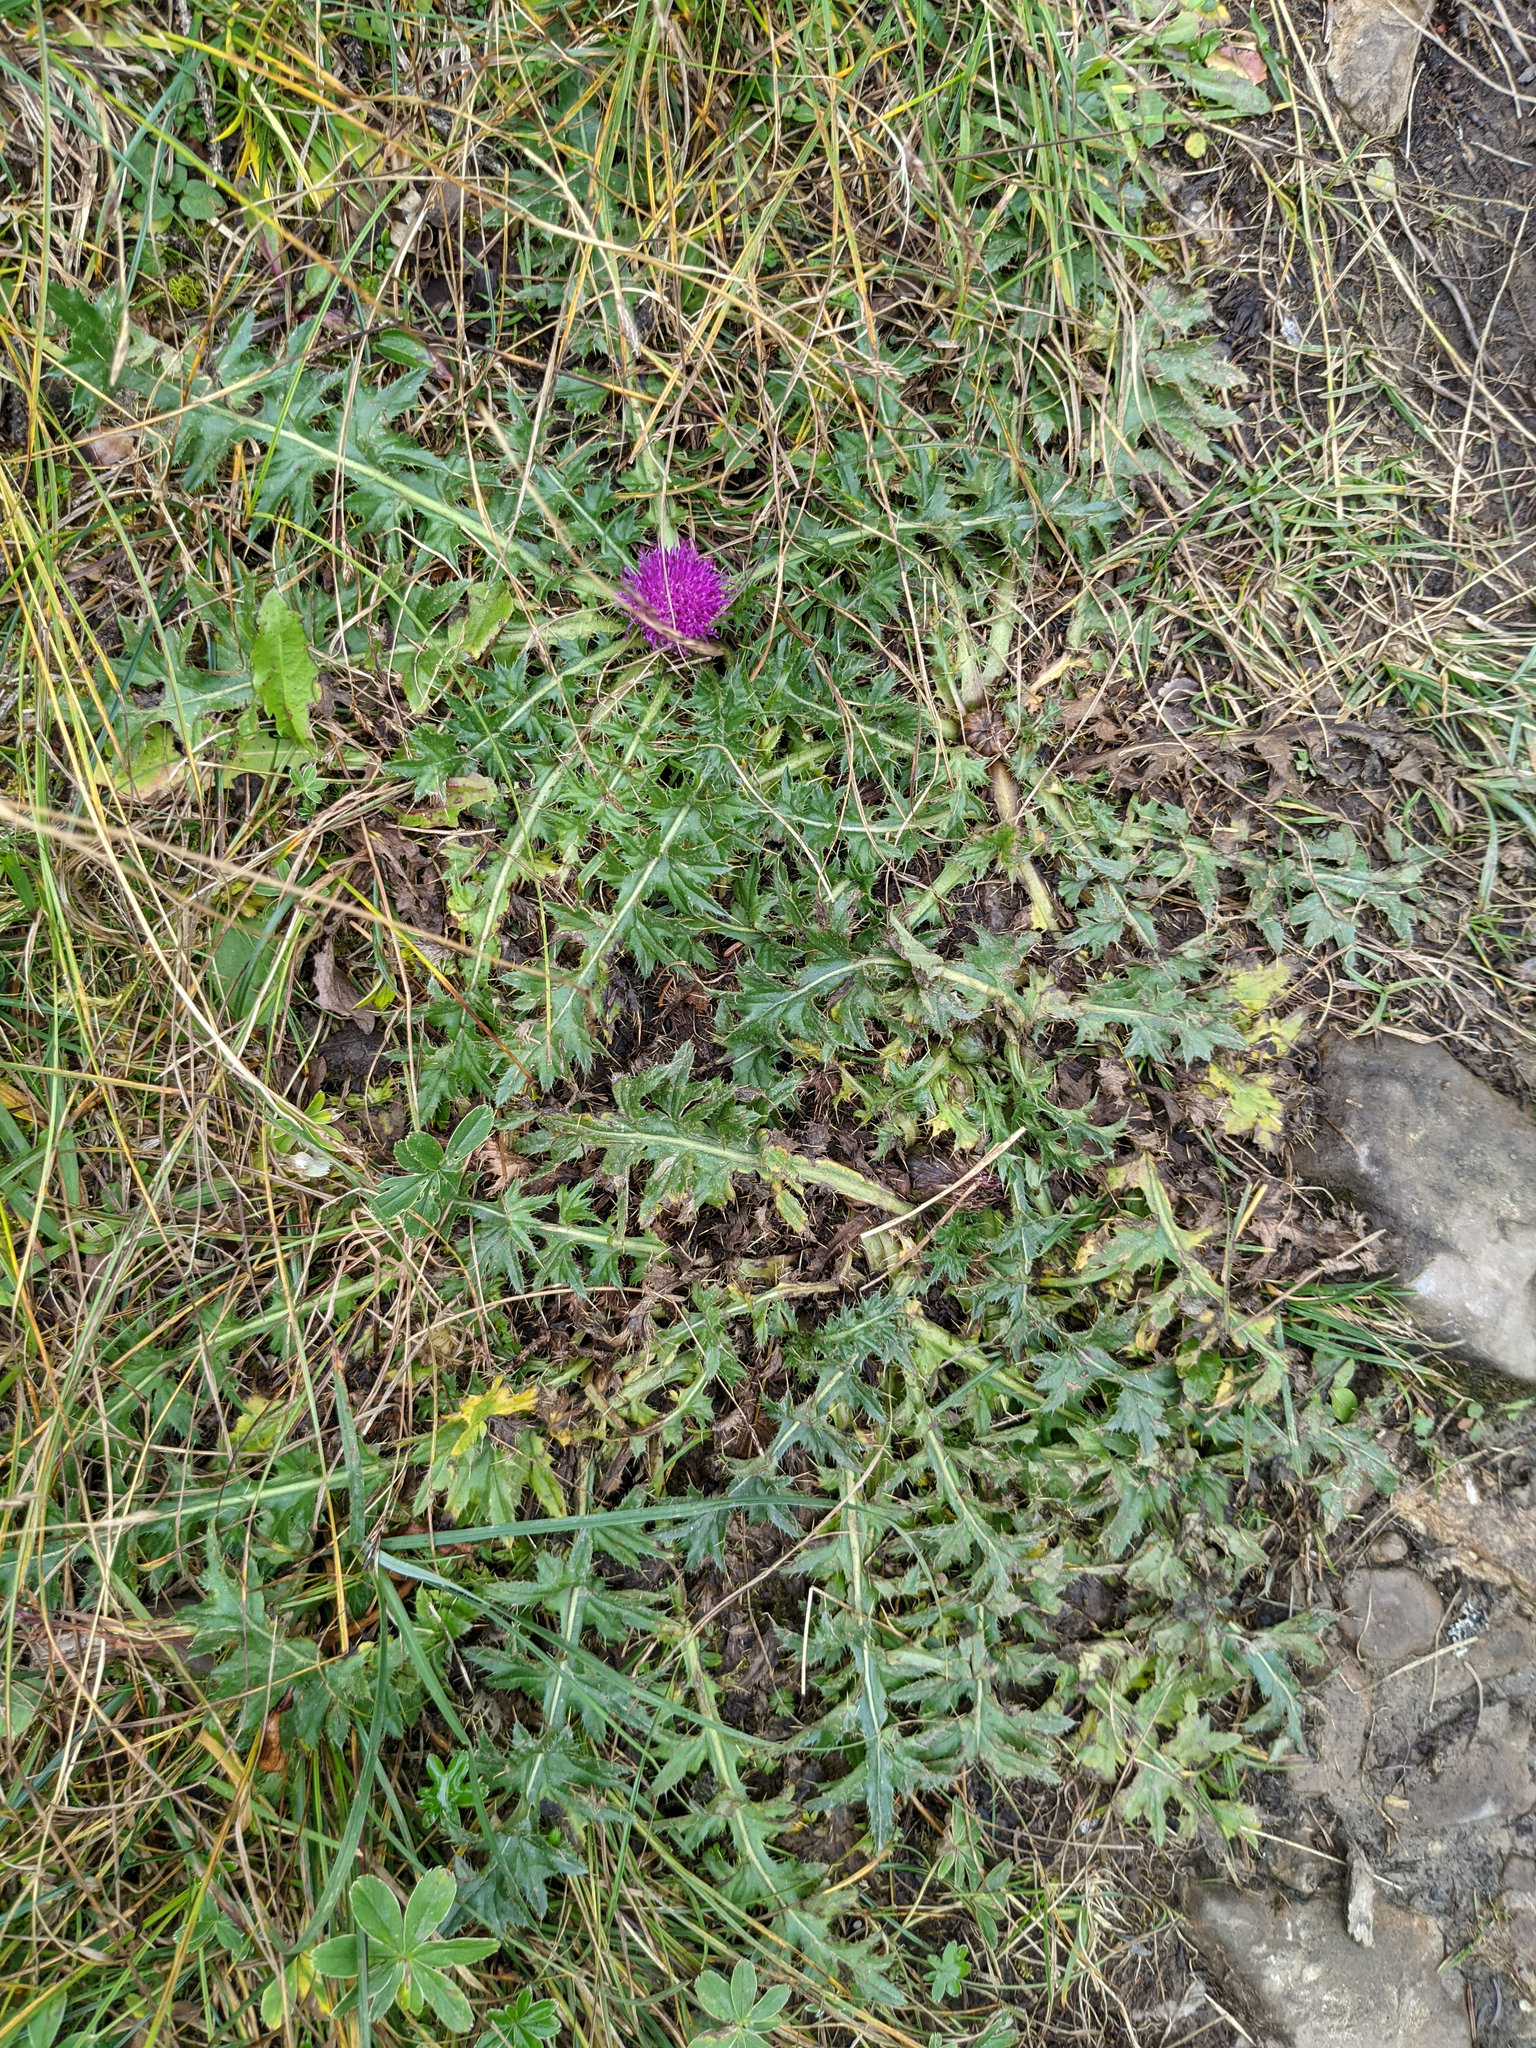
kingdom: Plantae
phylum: Tracheophyta
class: Magnoliopsida
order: Asterales
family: Asteraceae
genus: Cirsium
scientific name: Cirsium acaulon
